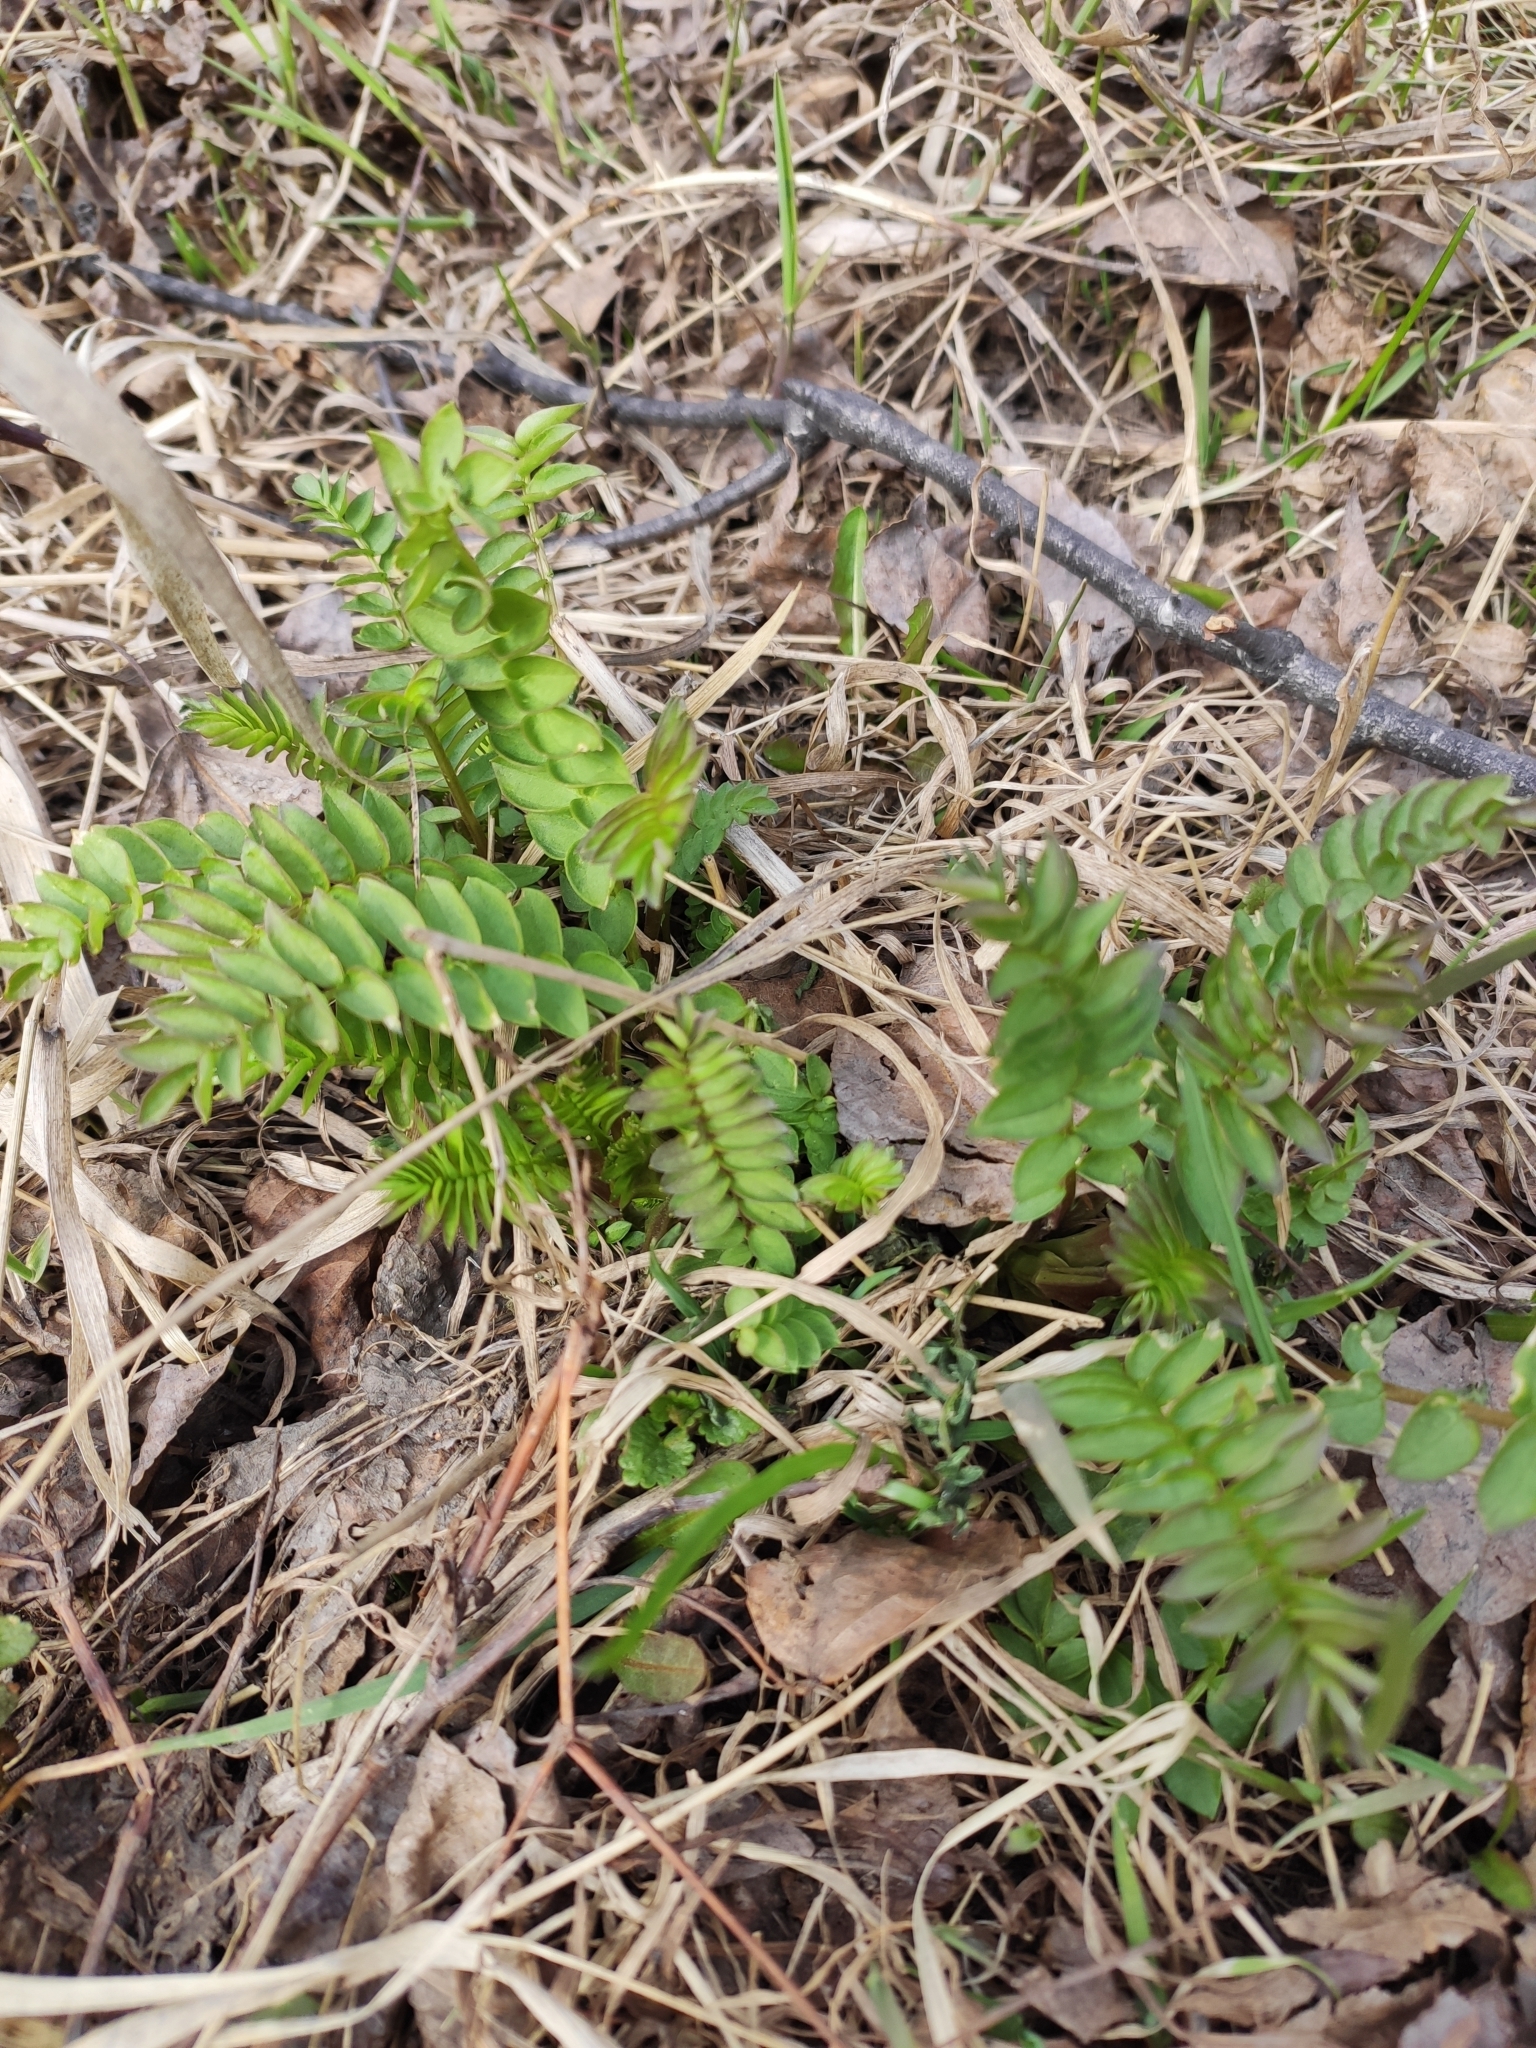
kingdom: Plantae
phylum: Tracheophyta
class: Magnoliopsida
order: Ericales
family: Polemoniaceae
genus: Polemonium
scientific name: Polemonium caeruleum
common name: Jacob's-ladder
